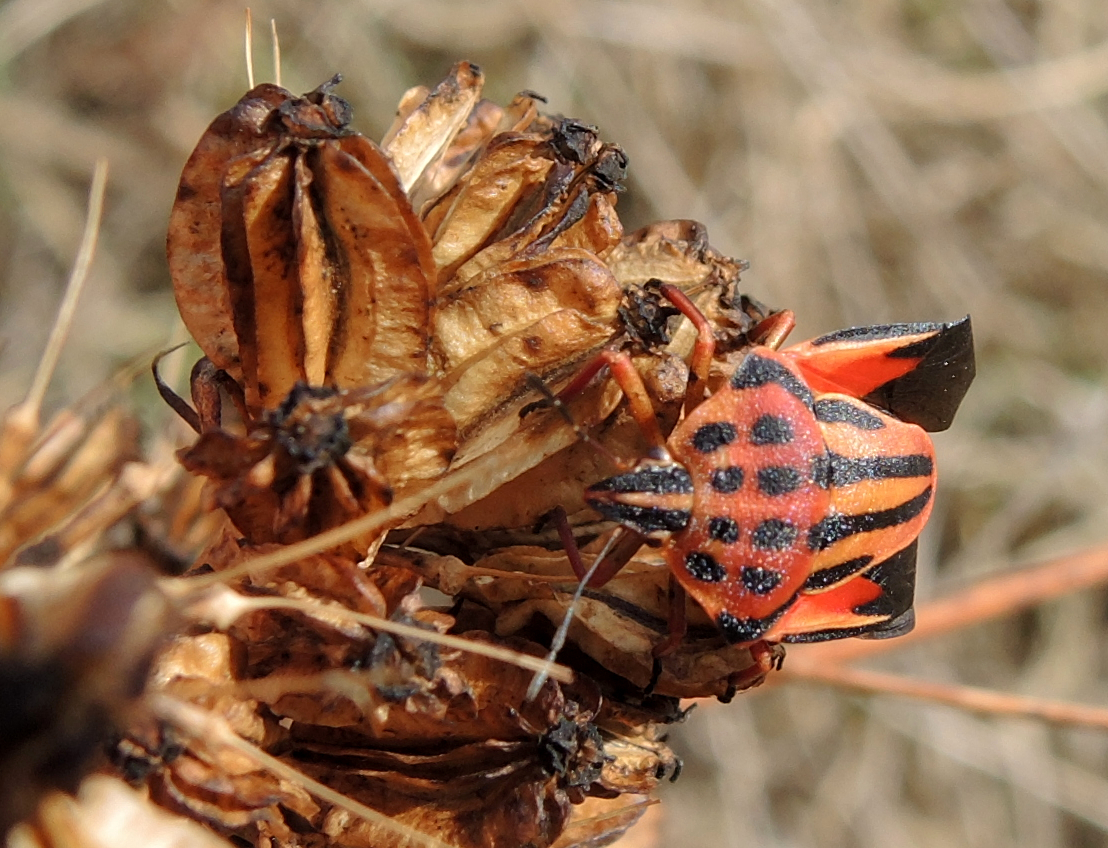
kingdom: Animalia
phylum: Arthropoda
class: Insecta
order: Hemiptera
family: Pentatomidae
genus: Graphosoma
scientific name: Graphosoma semipunctatum
